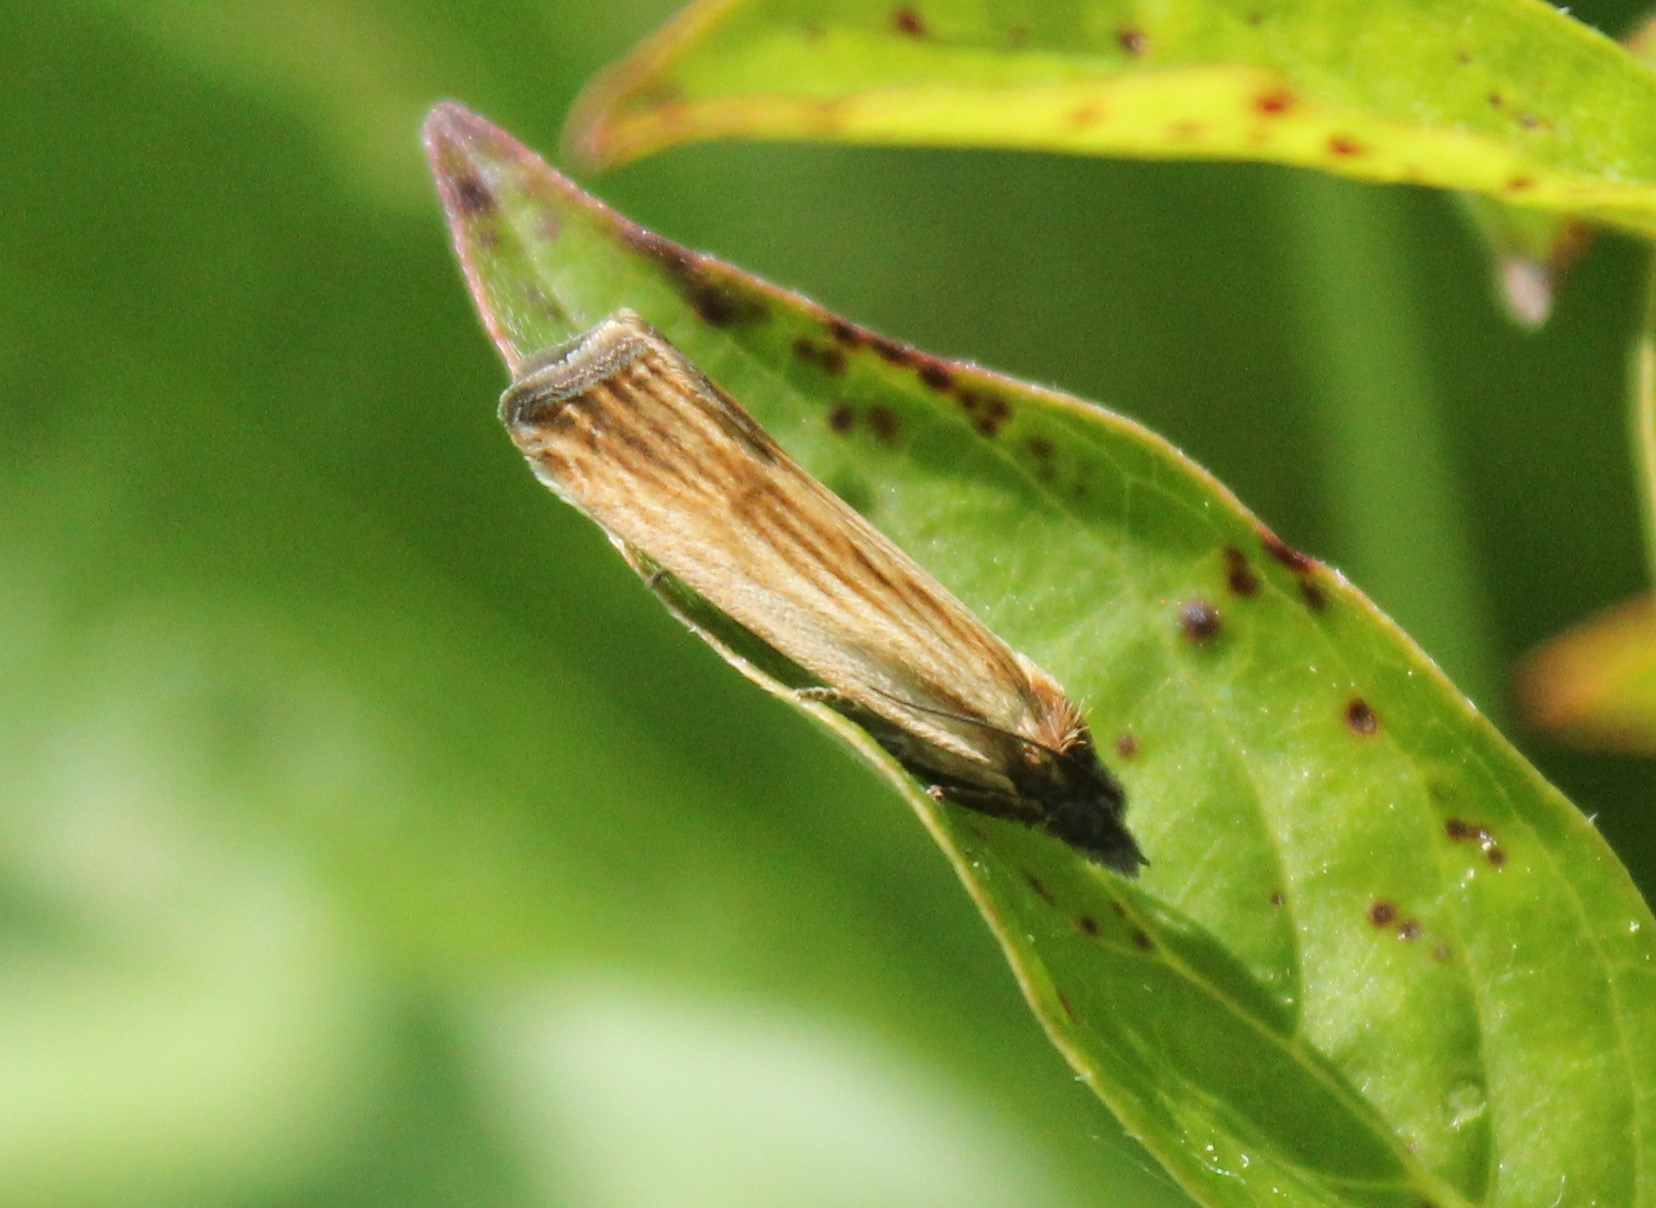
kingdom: Animalia
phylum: Arthropoda
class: Insecta
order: Lepidoptera
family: Tortricidae
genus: Eucosma
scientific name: Eucosma radiatana
